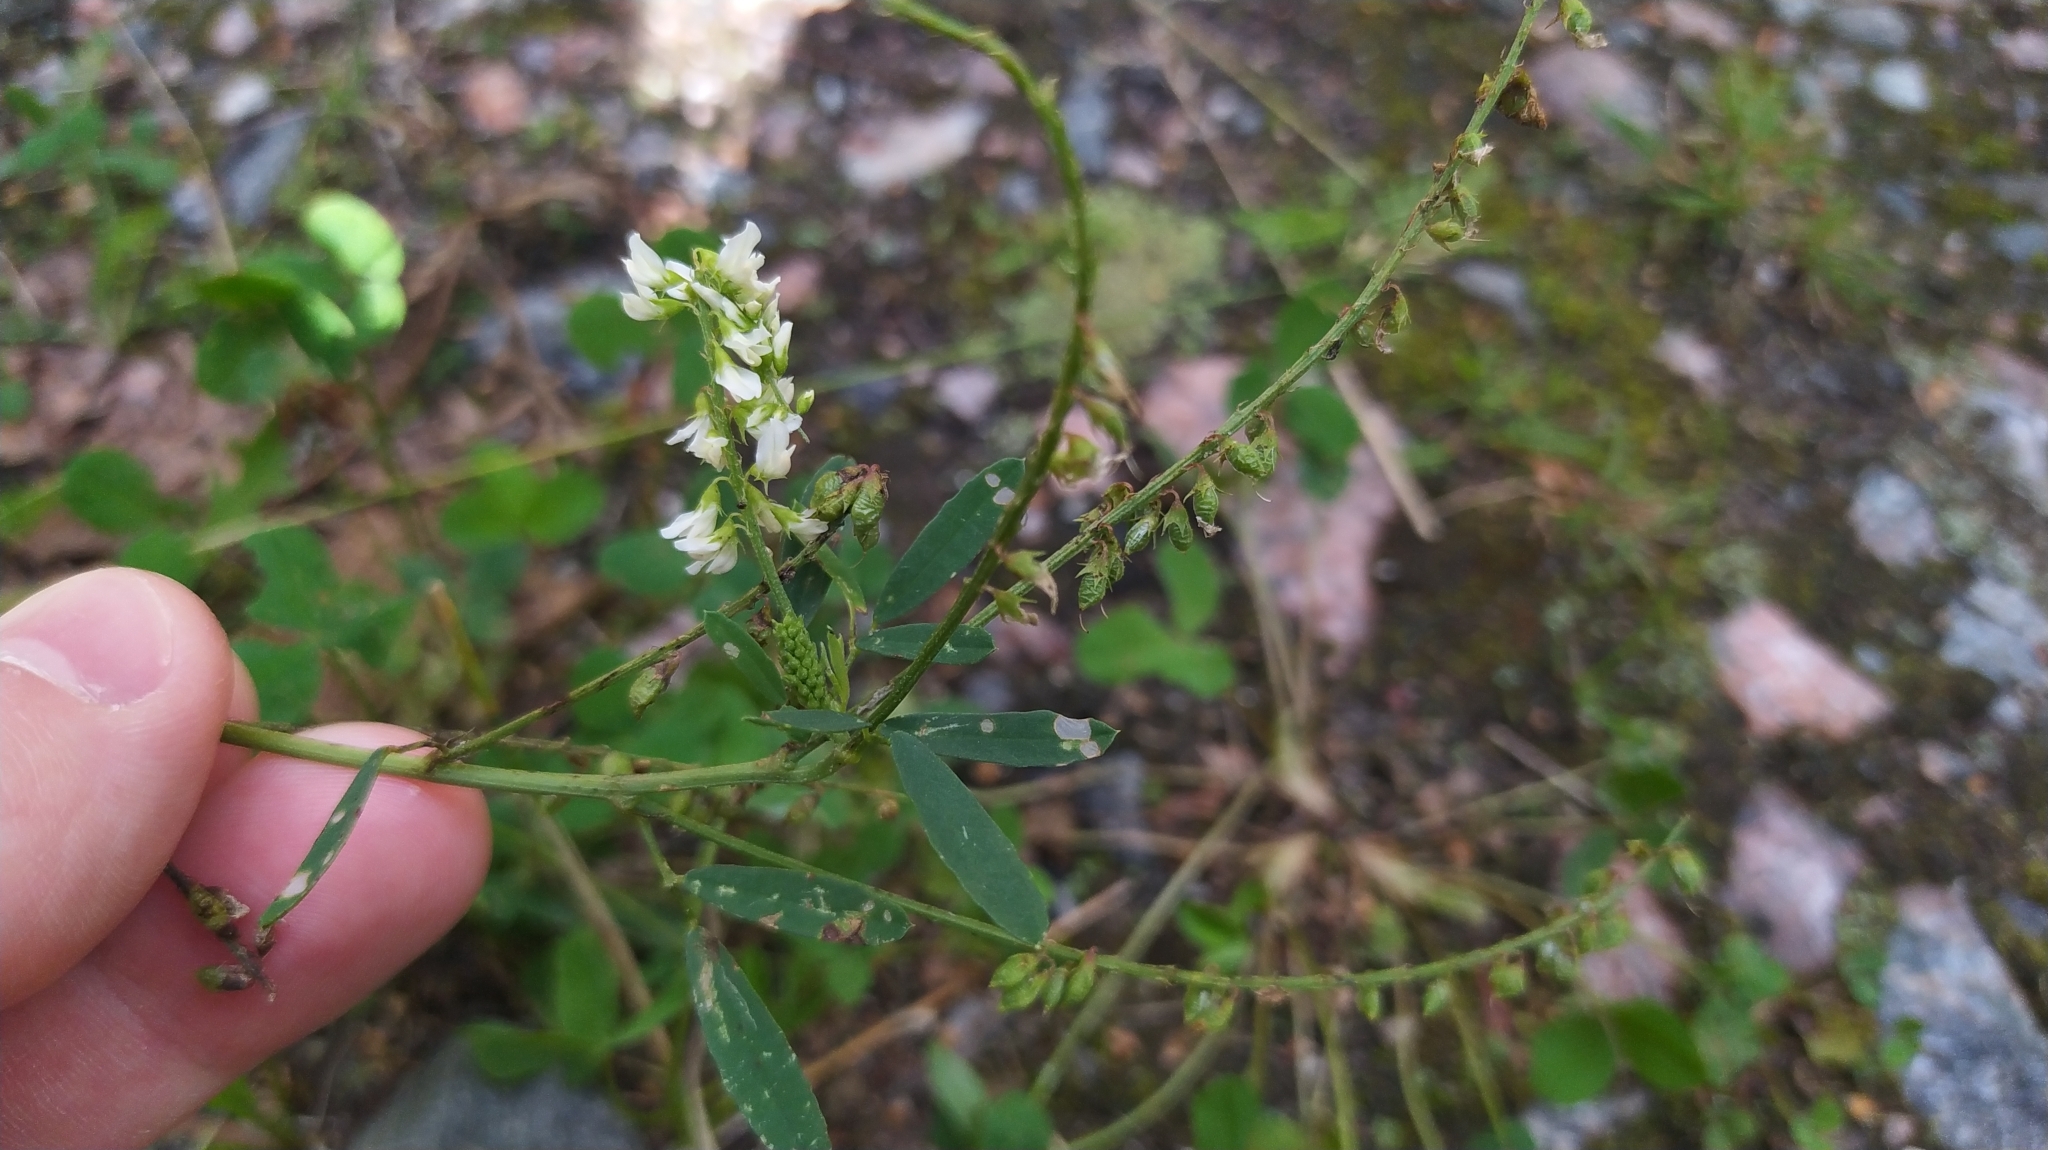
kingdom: Plantae
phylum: Tracheophyta
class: Magnoliopsida
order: Fabales
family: Fabaceae
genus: Melilotus
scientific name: Melilotus albus
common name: White melilot
